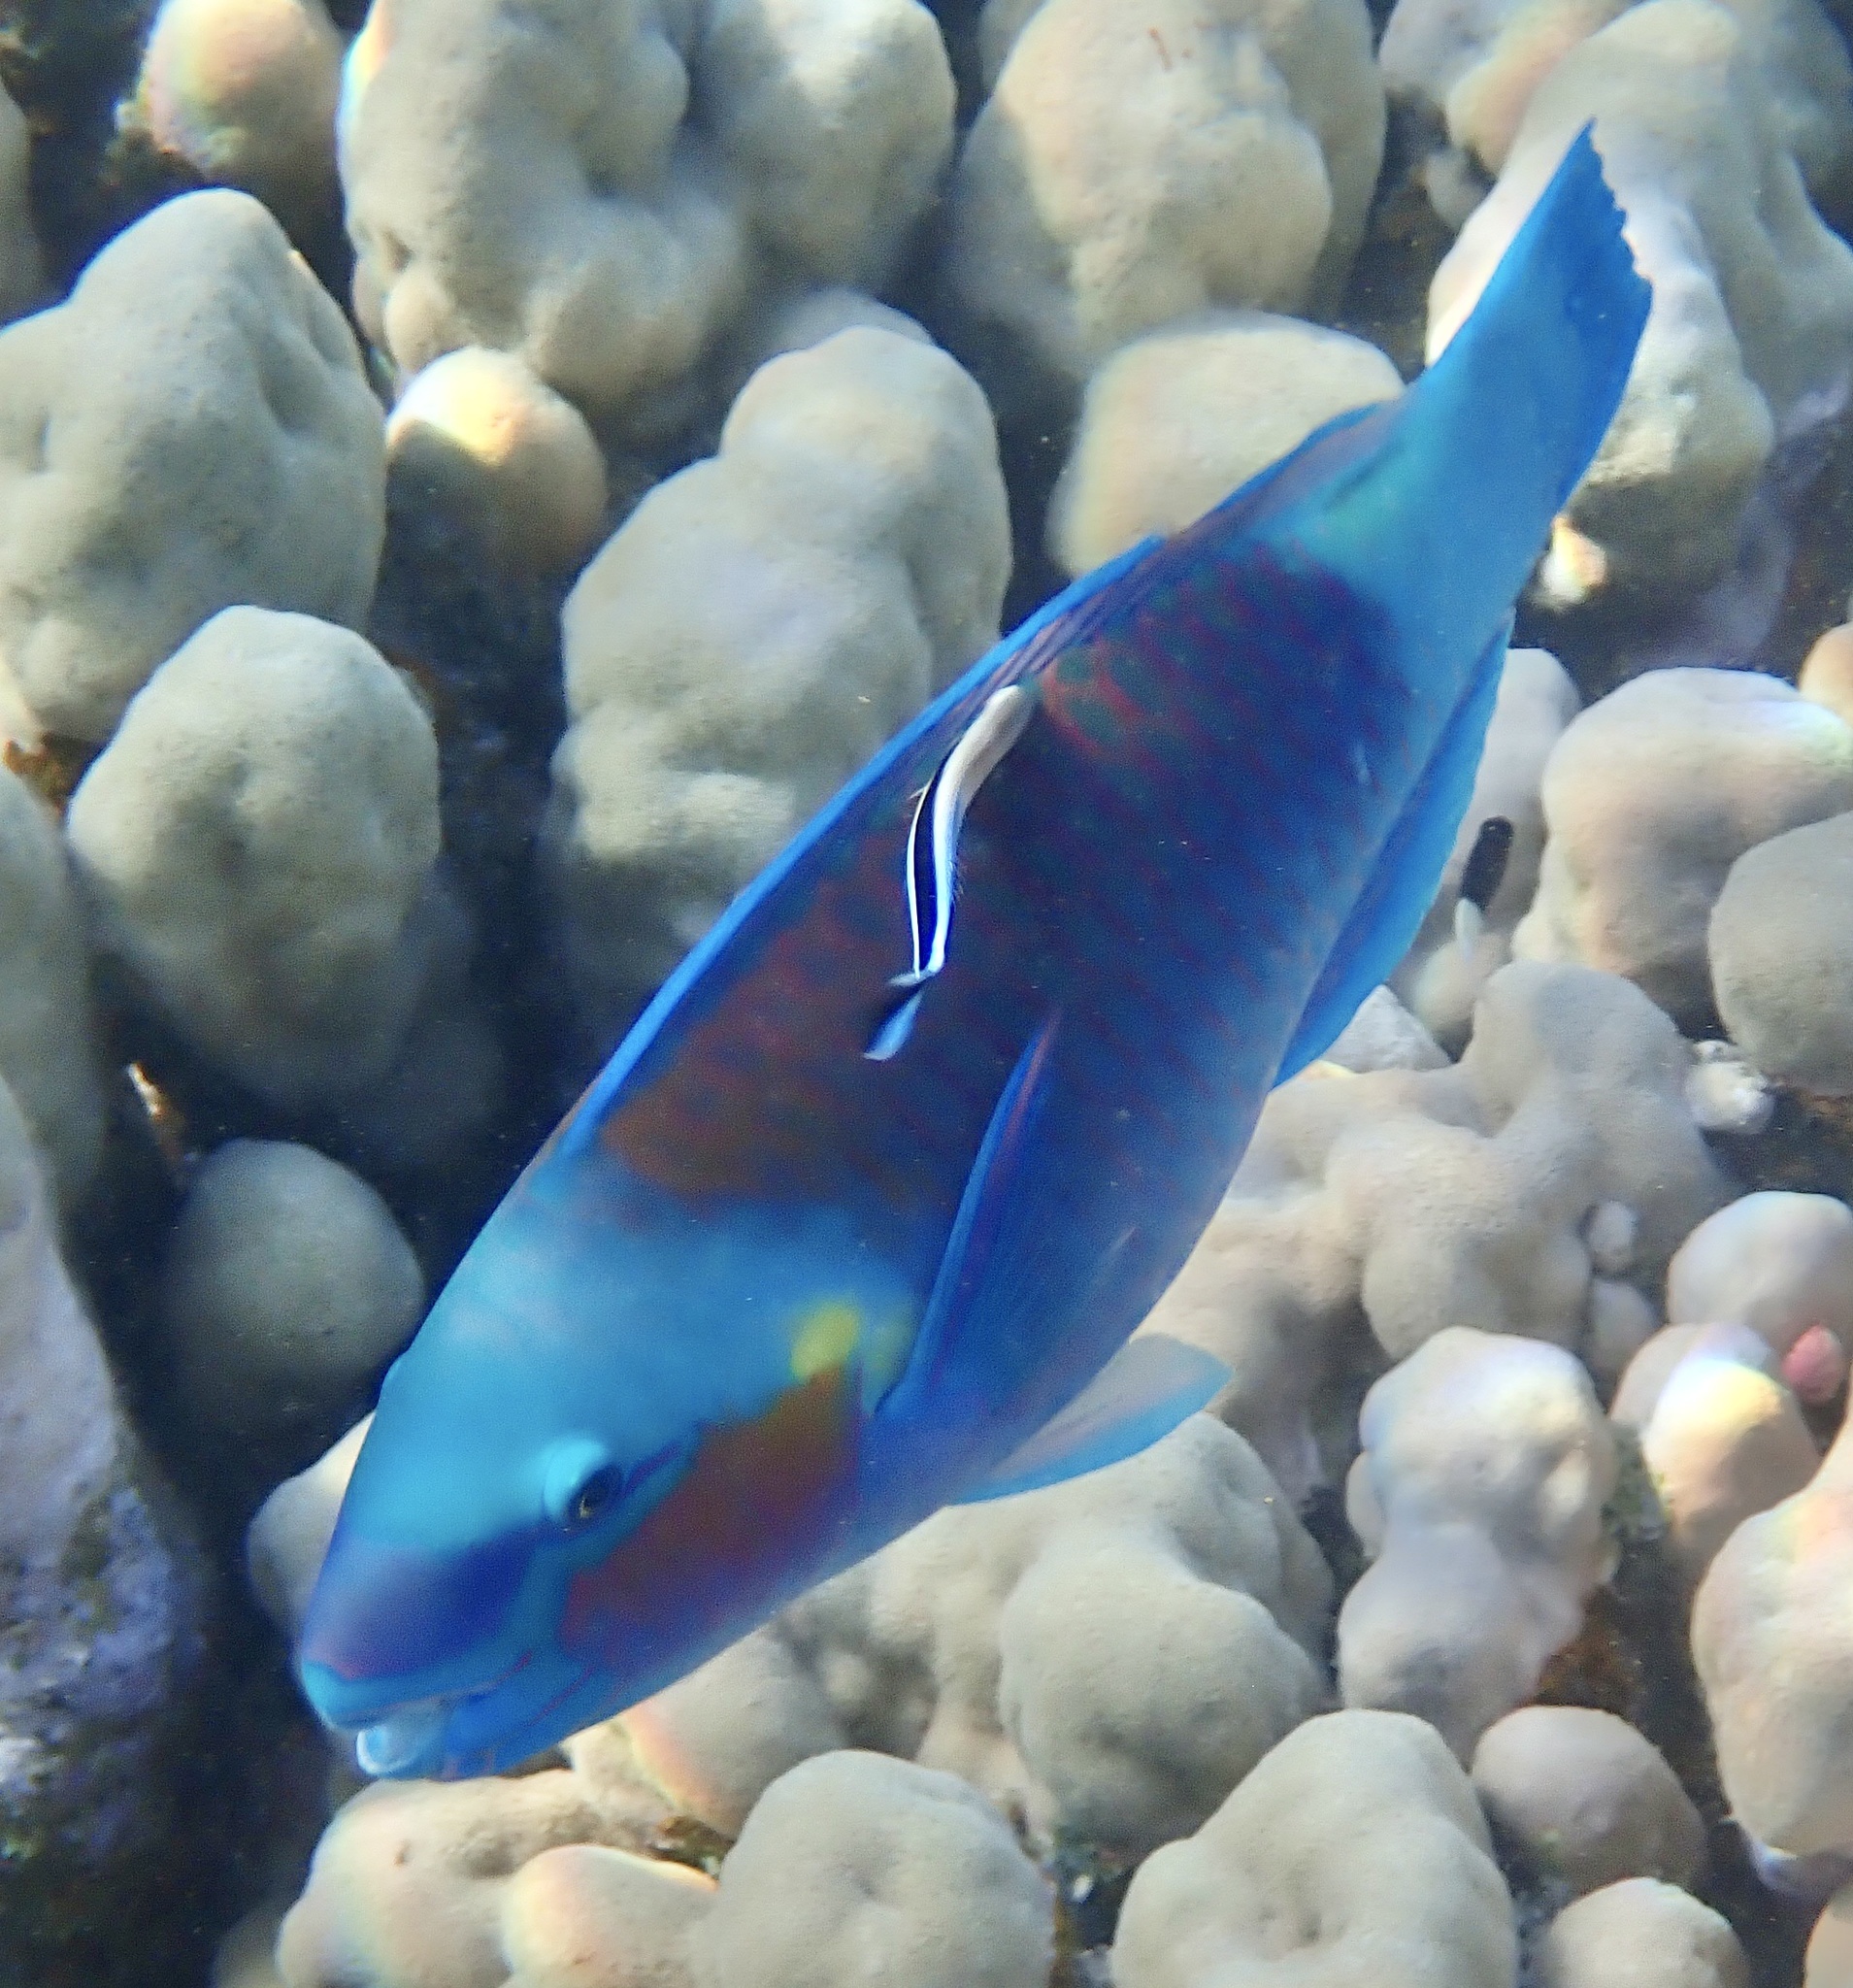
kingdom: Animalia
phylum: Chordata
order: Perciformes
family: Scaridae
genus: Chlorurus
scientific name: Chlorurus sordidus
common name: Bullethead parrotfish
